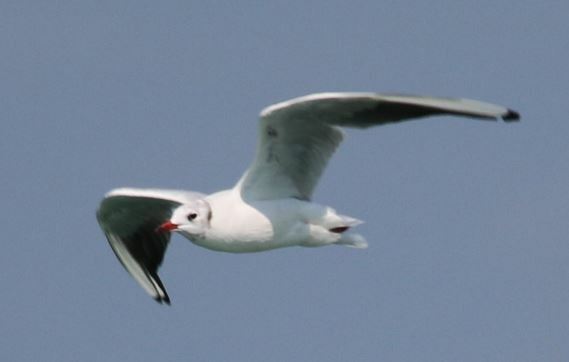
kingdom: Animalia
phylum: Chordata
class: Aves
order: Charadriiformes
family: Laridae
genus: Chroicocephalus
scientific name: Chroicocephalus ridibundus
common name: Black-headed gull
